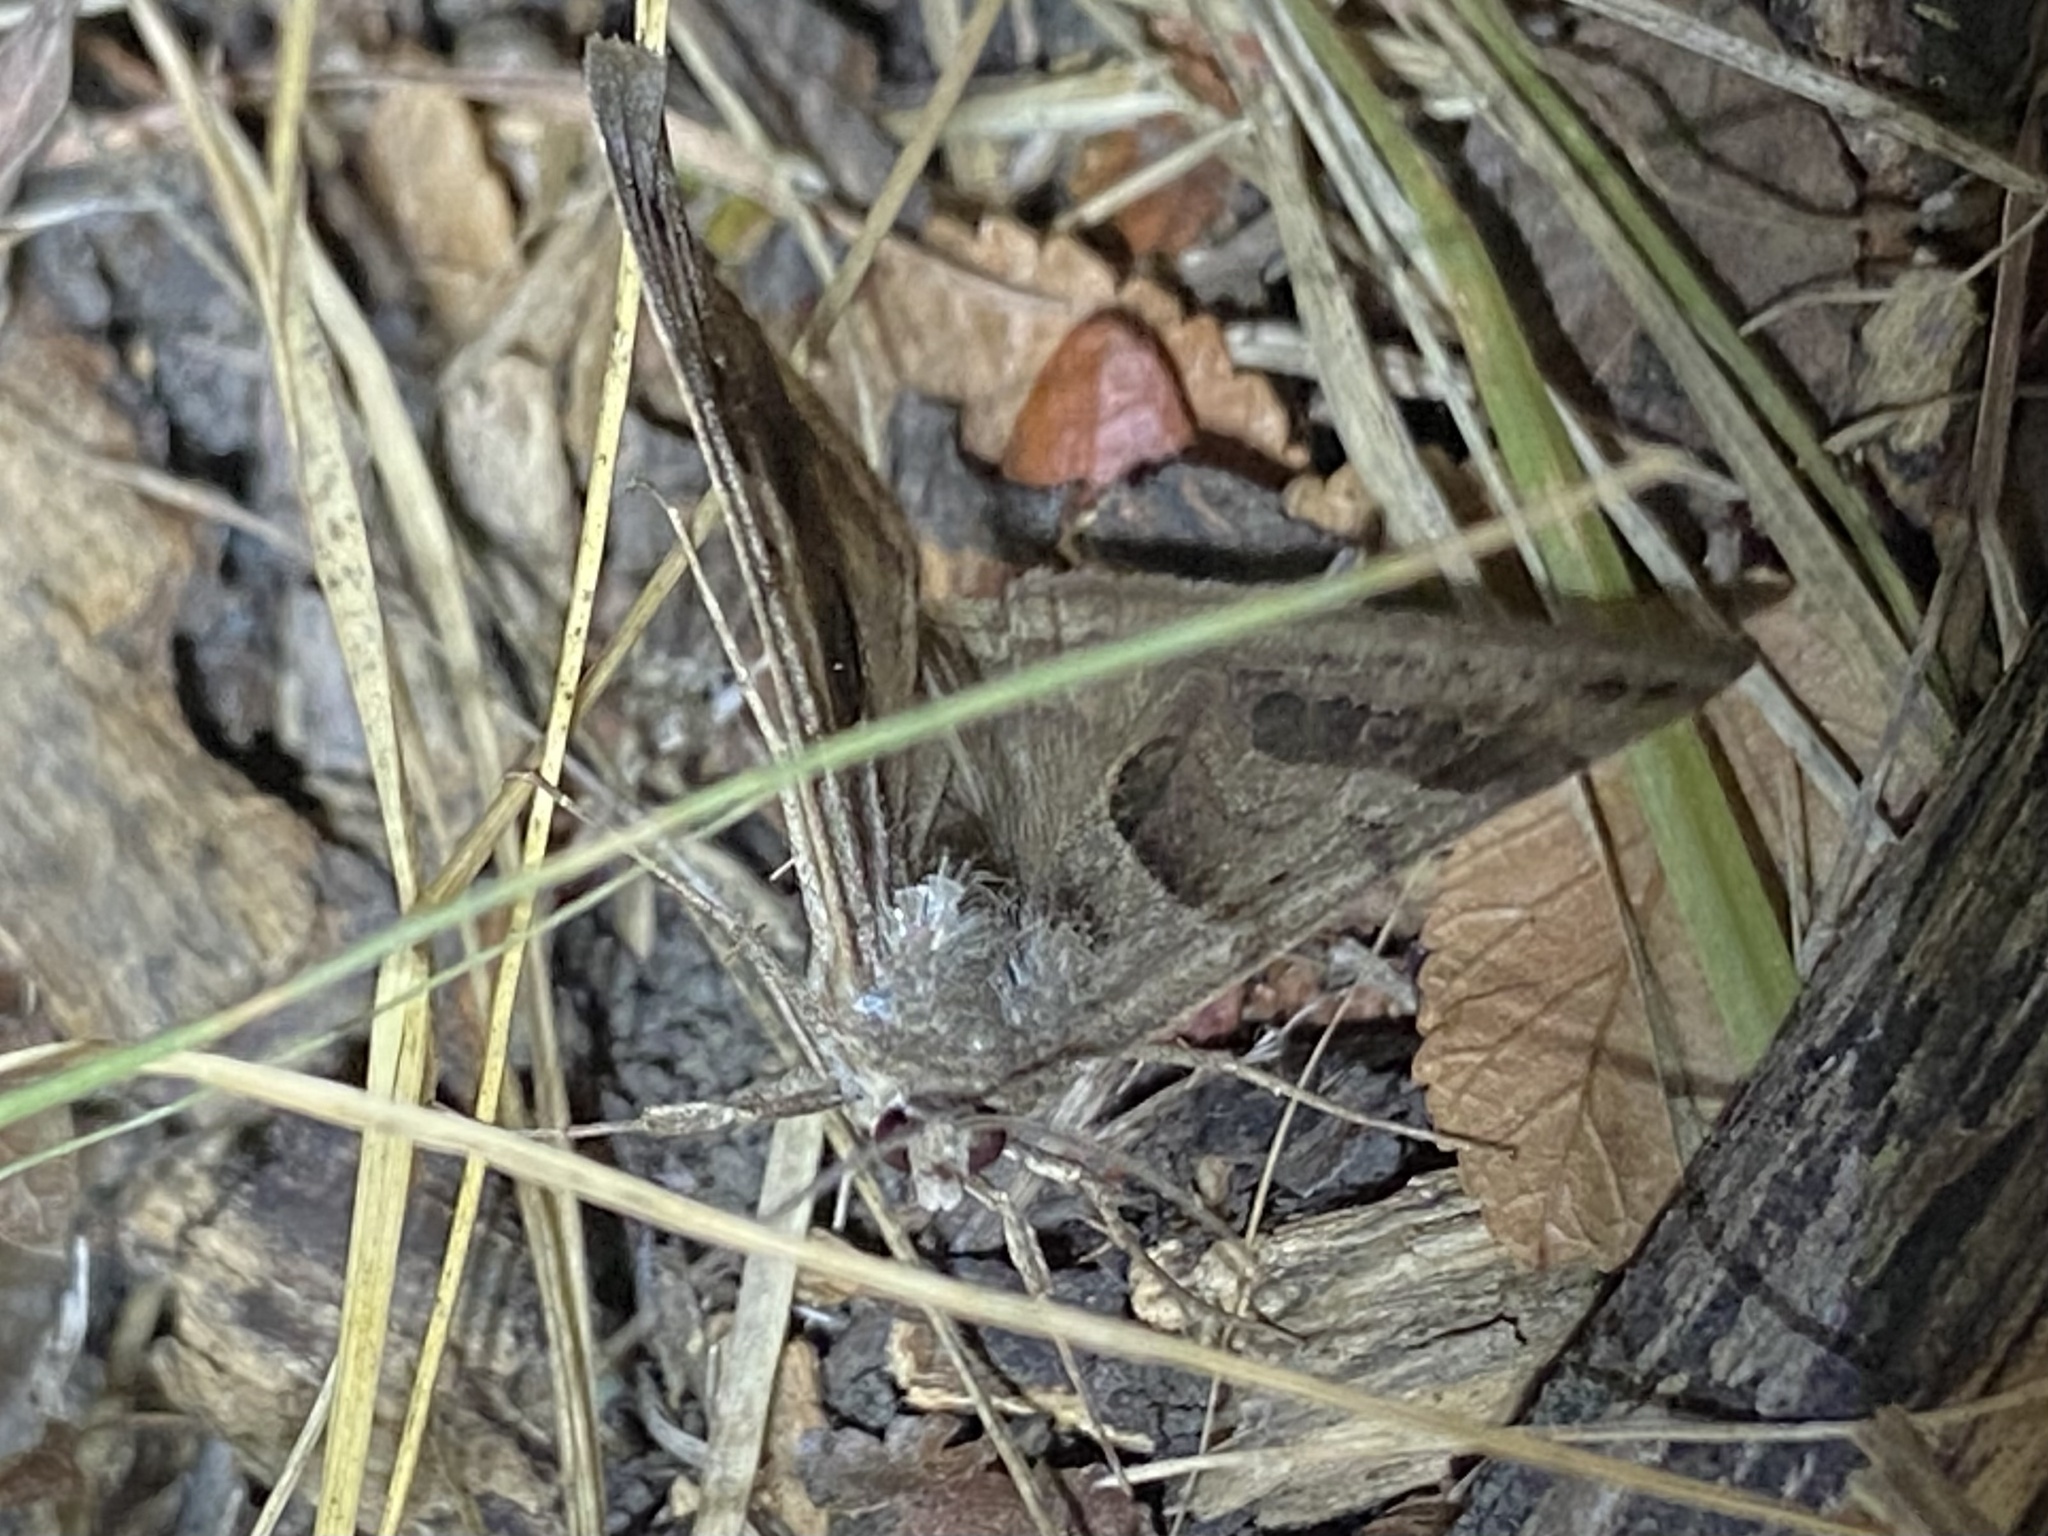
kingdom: Animalia
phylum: Arthropoda
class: Insecta
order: Lepidoptera
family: Erebidae
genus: Caenurgina
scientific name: Caenurgina erechtea
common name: Forage looper moth
